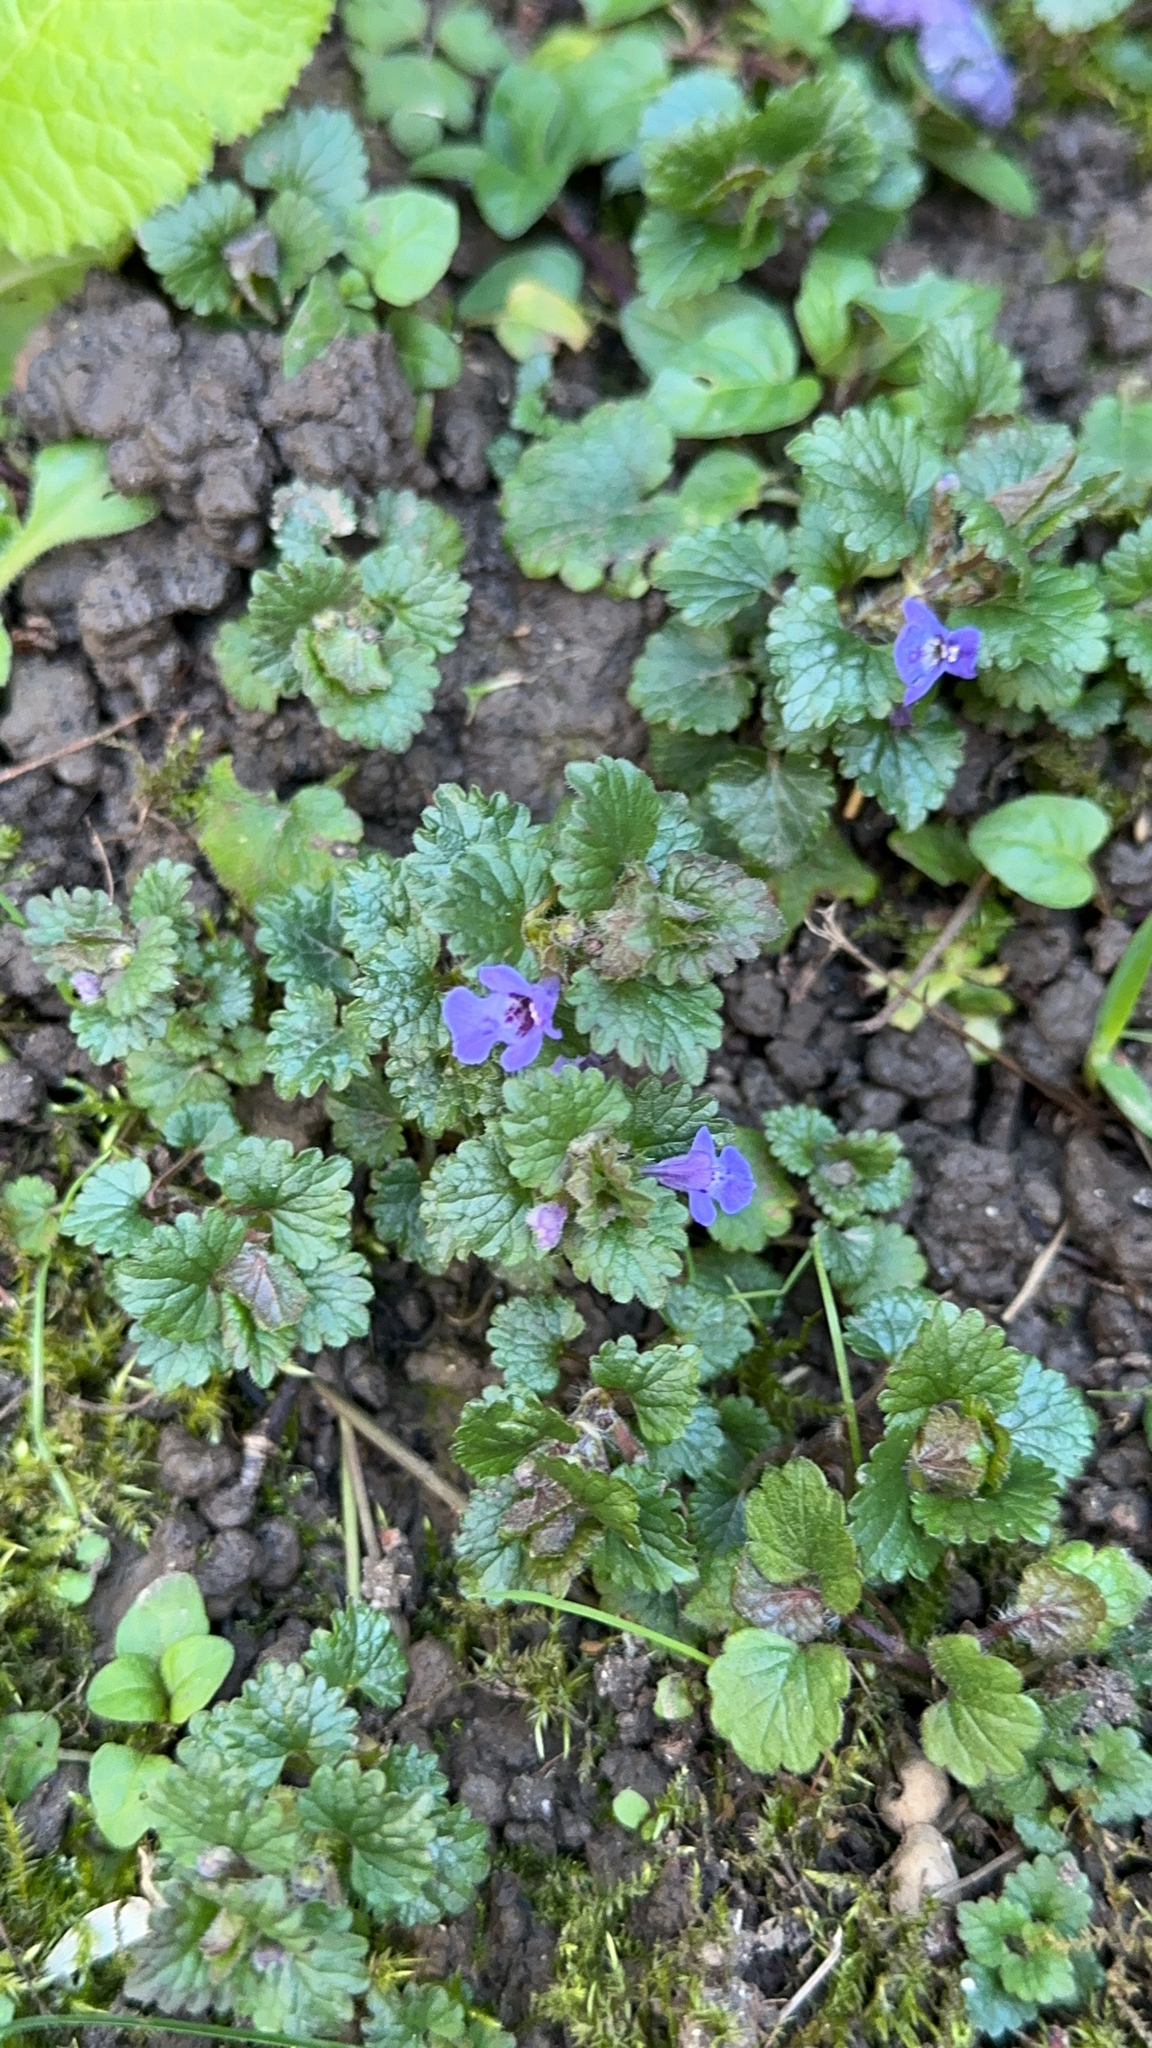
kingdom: Plantae
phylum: Tracheophyta
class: Magnoliopsida
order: Lamiales
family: Lamiaceae
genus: Glechoma
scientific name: Glechoma hederacea
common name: Ground ivy
